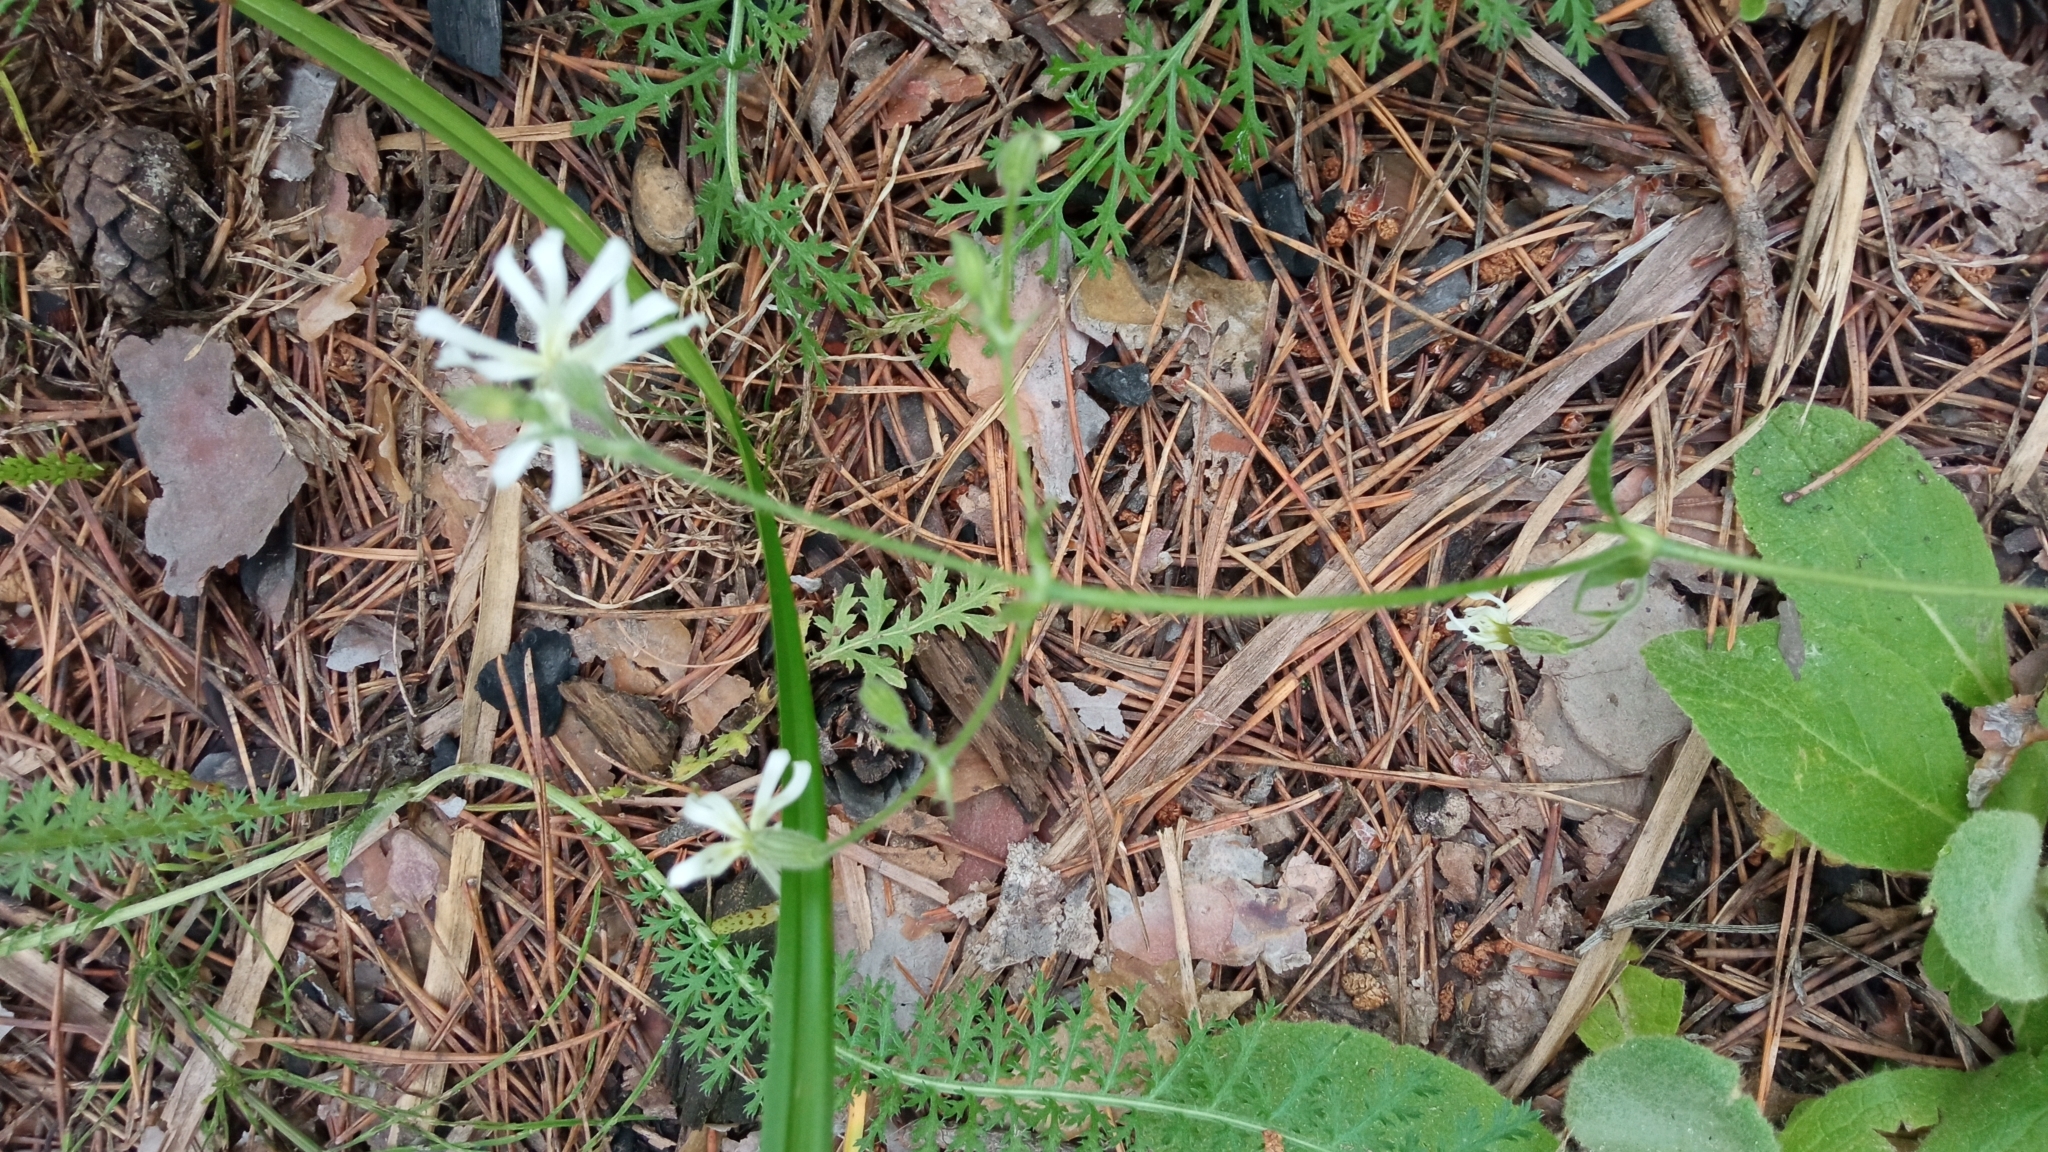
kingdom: Plantae
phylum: Tracheophyta
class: Magnoliopsida
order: Caryophyllales
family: Caryophyllaceae
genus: Silene
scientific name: Silene nutans
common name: Nottingham catchfly
